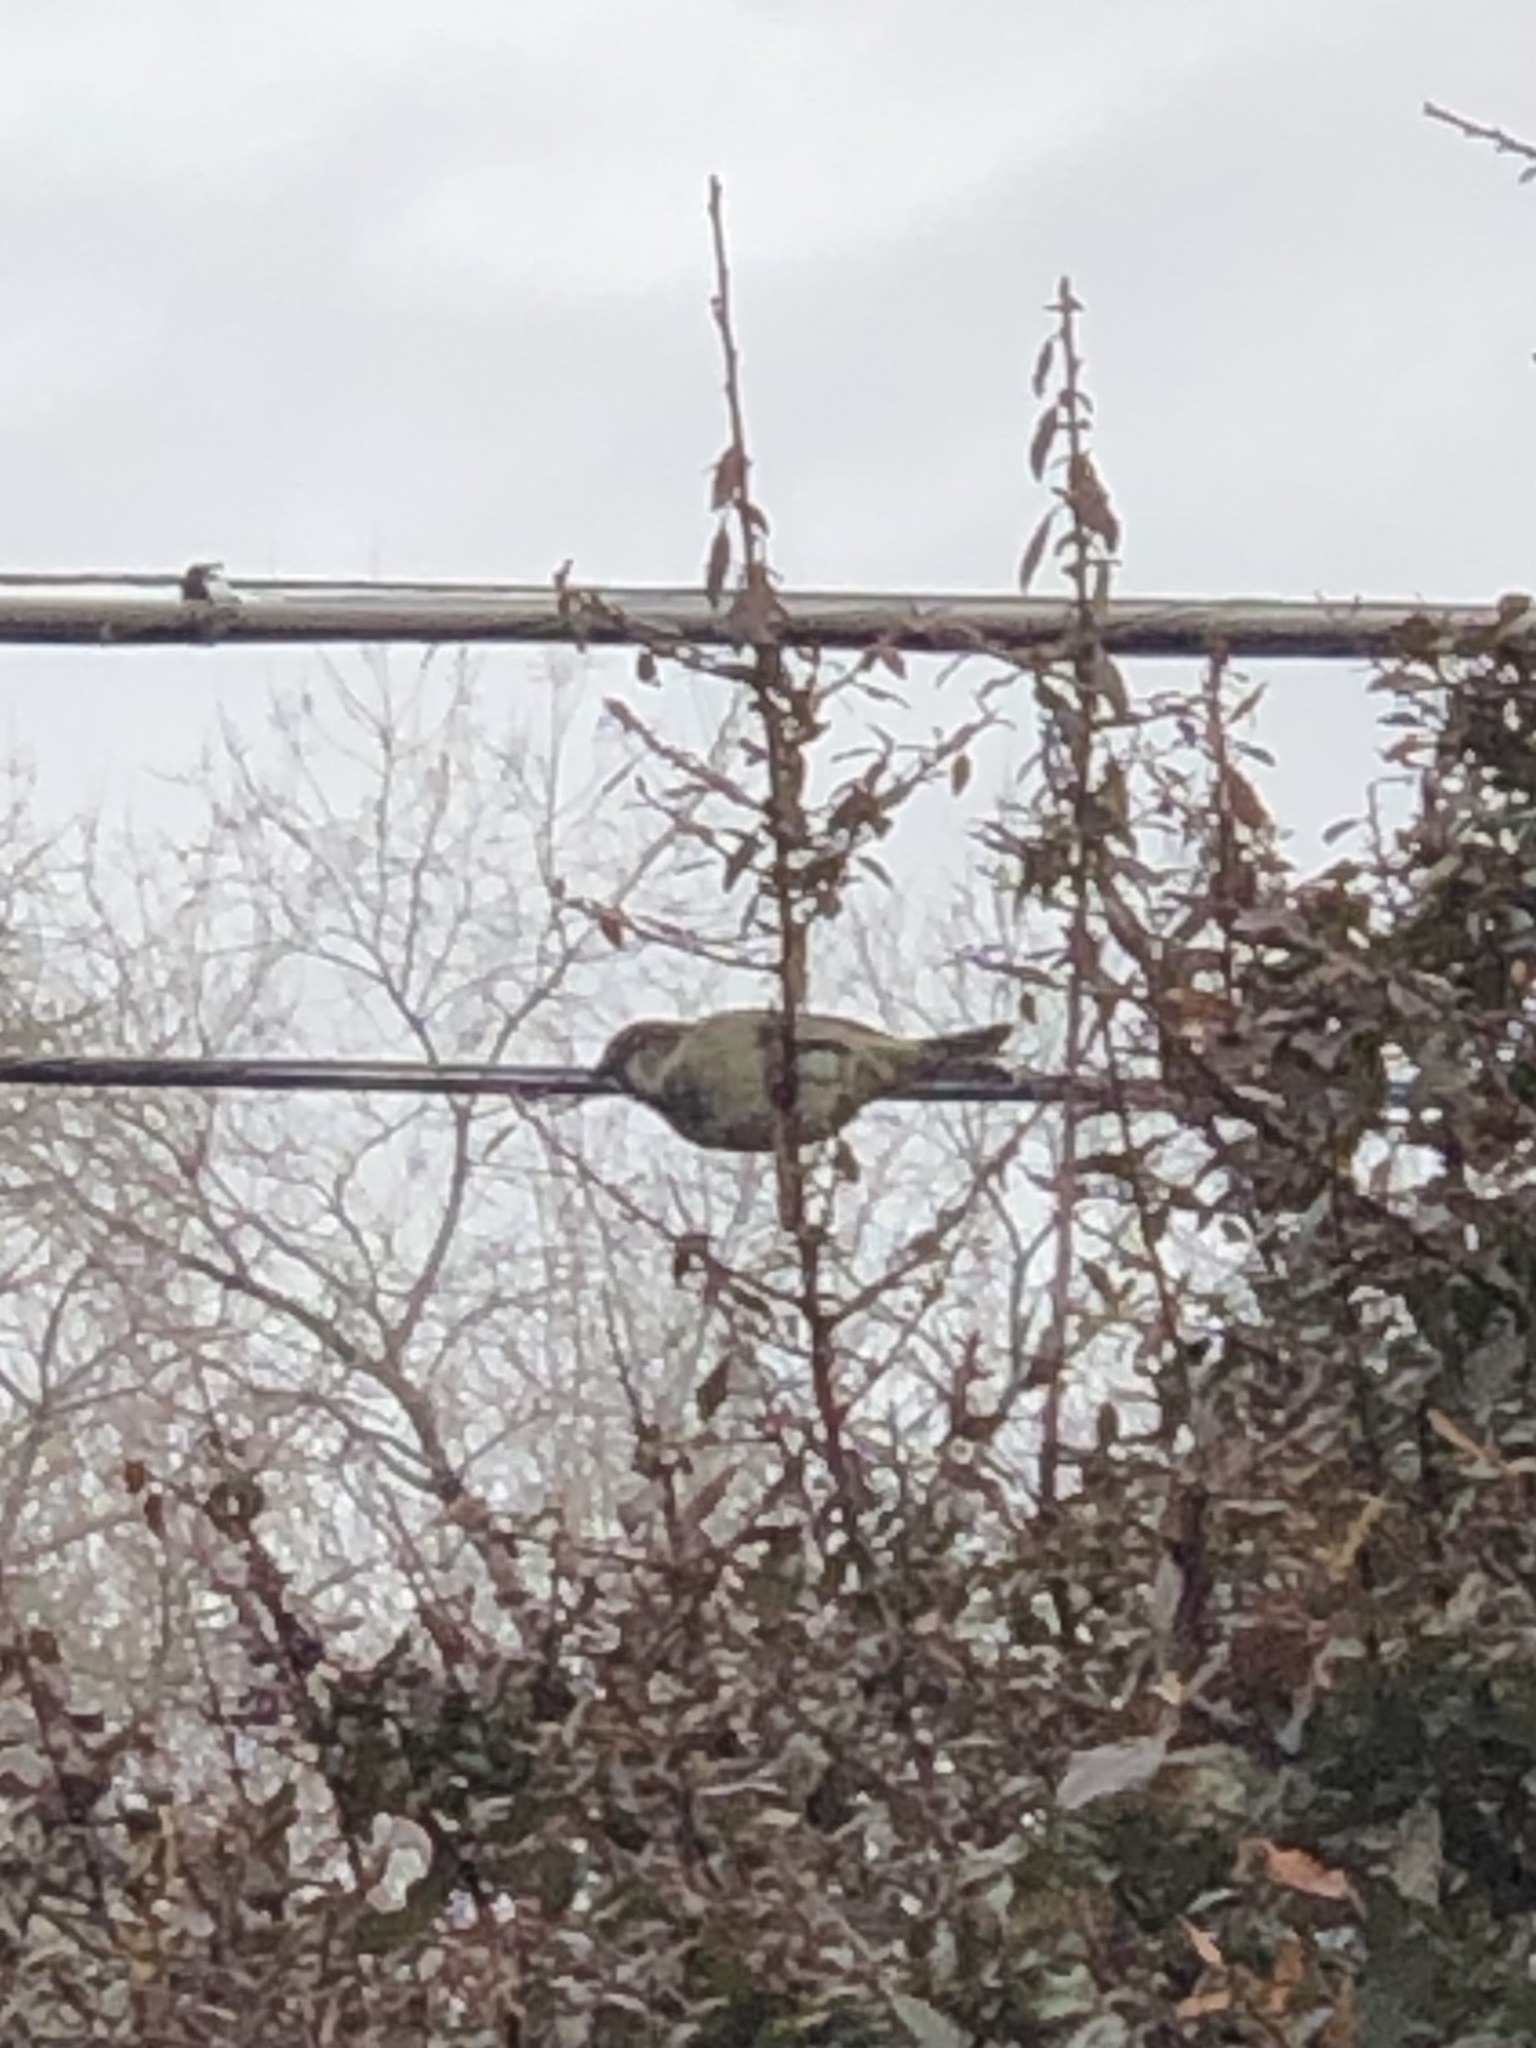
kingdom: Animalia
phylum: Chordata
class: Aves
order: Passeriformes
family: Passeridae
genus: Passer
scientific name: Passer domesticus
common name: House sparrow
